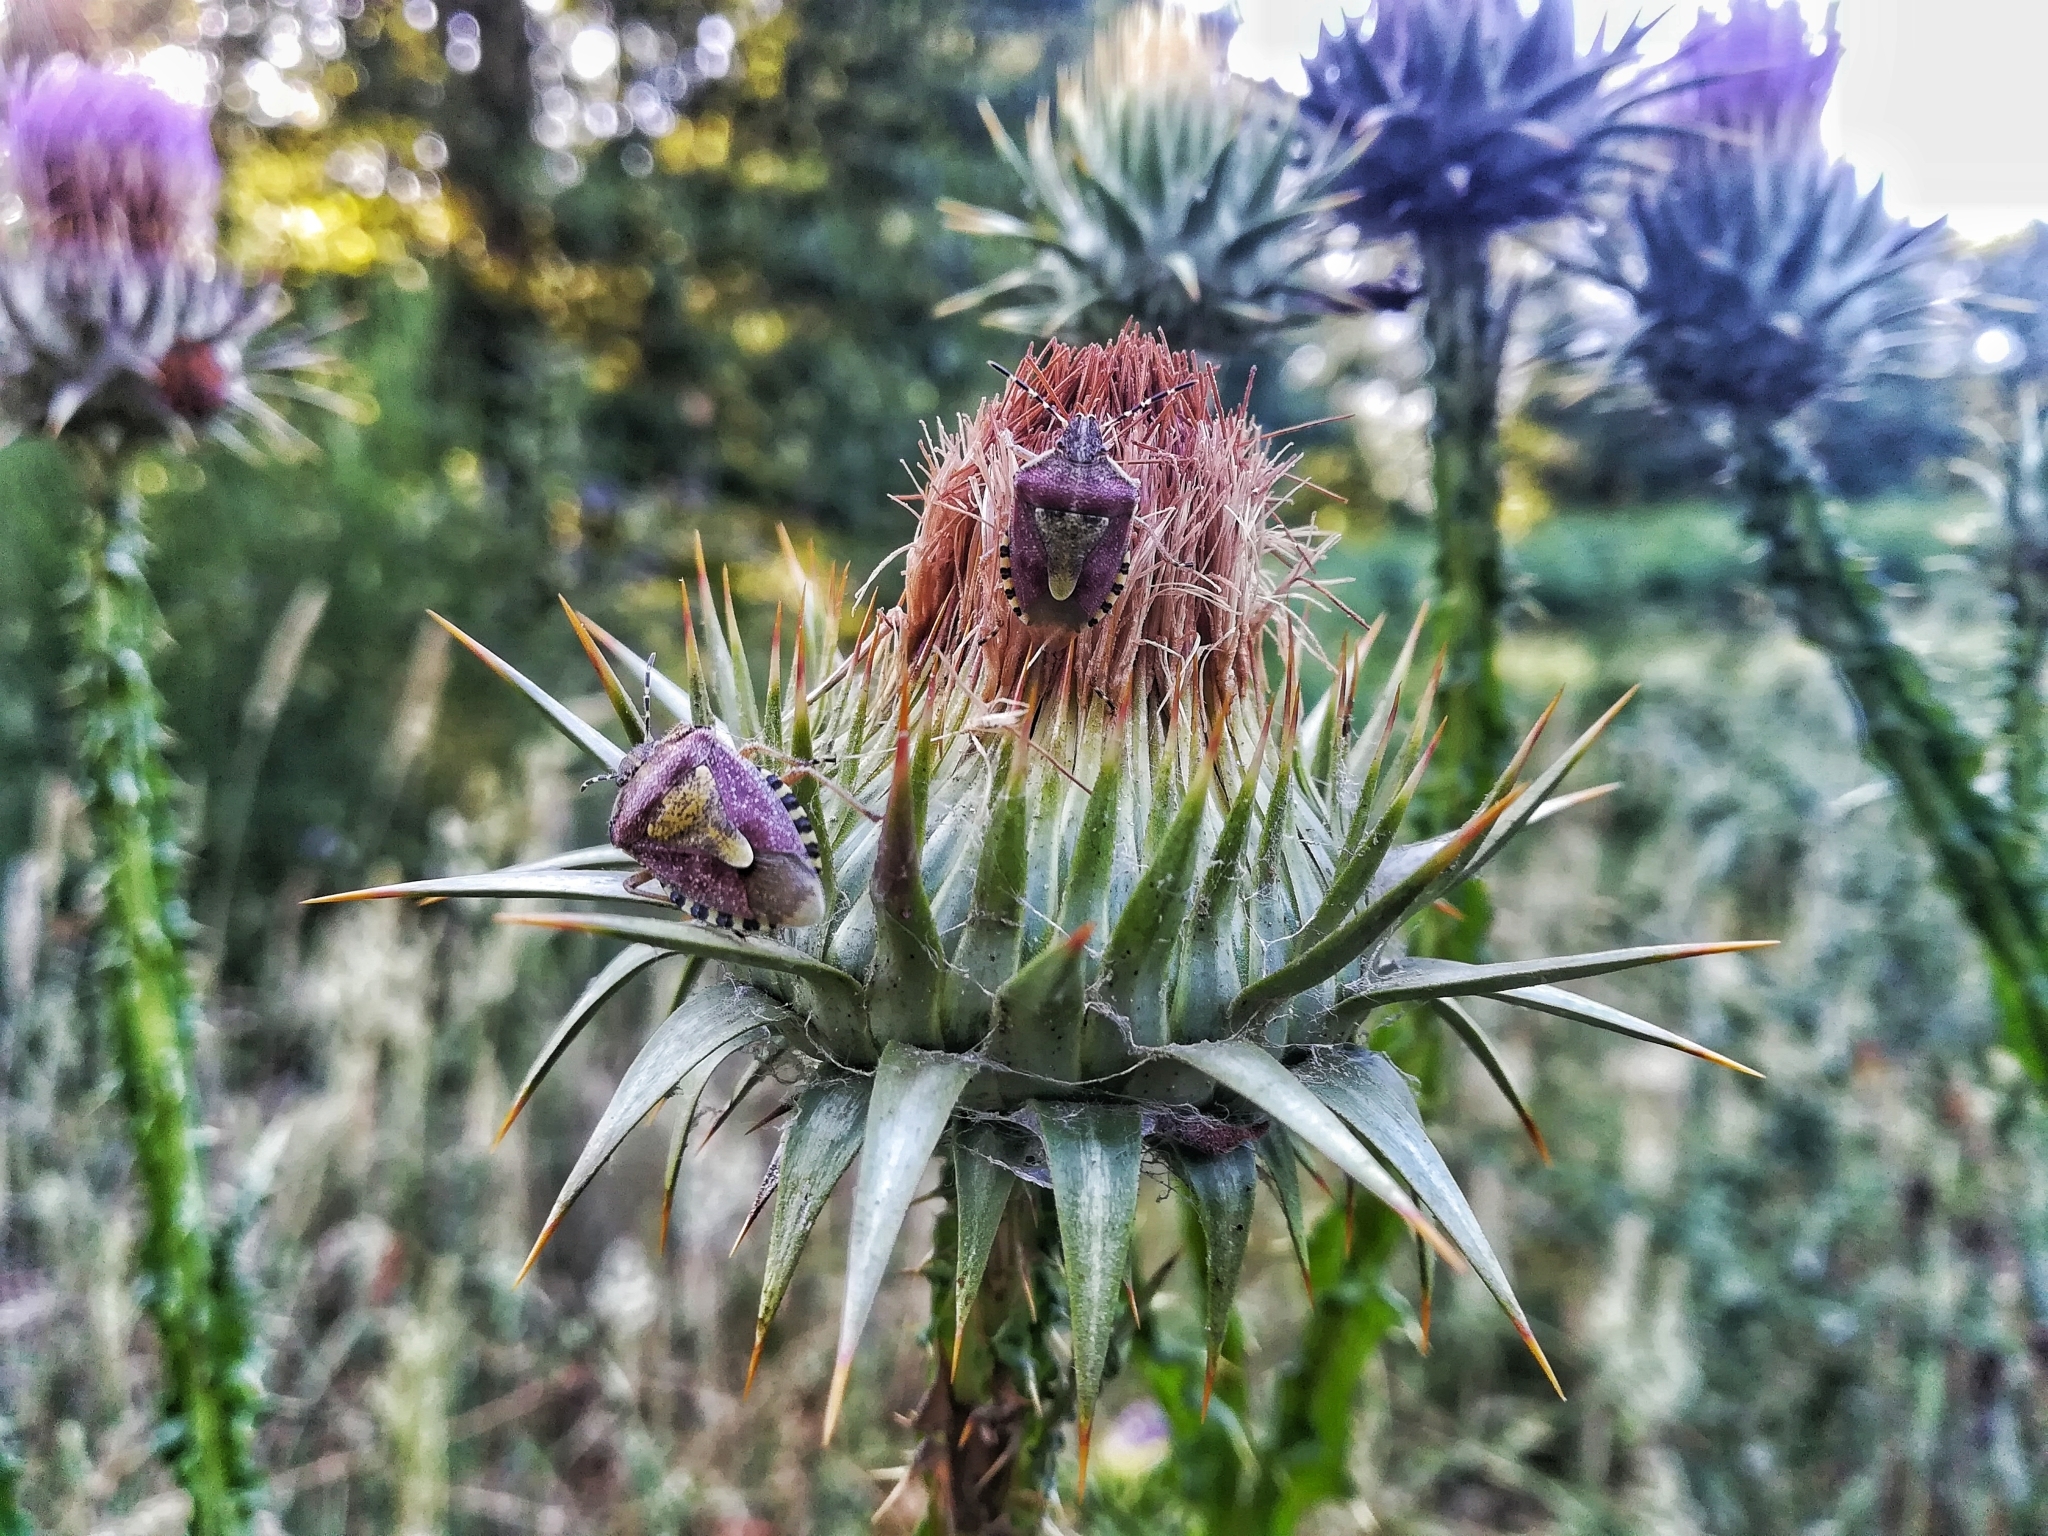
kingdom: Animalia
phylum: Arthropoda
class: Insecta
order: Hemiptera
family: Pentatomidae
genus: Dolycoris
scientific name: Dolycoris baccarum
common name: Sloe bug
